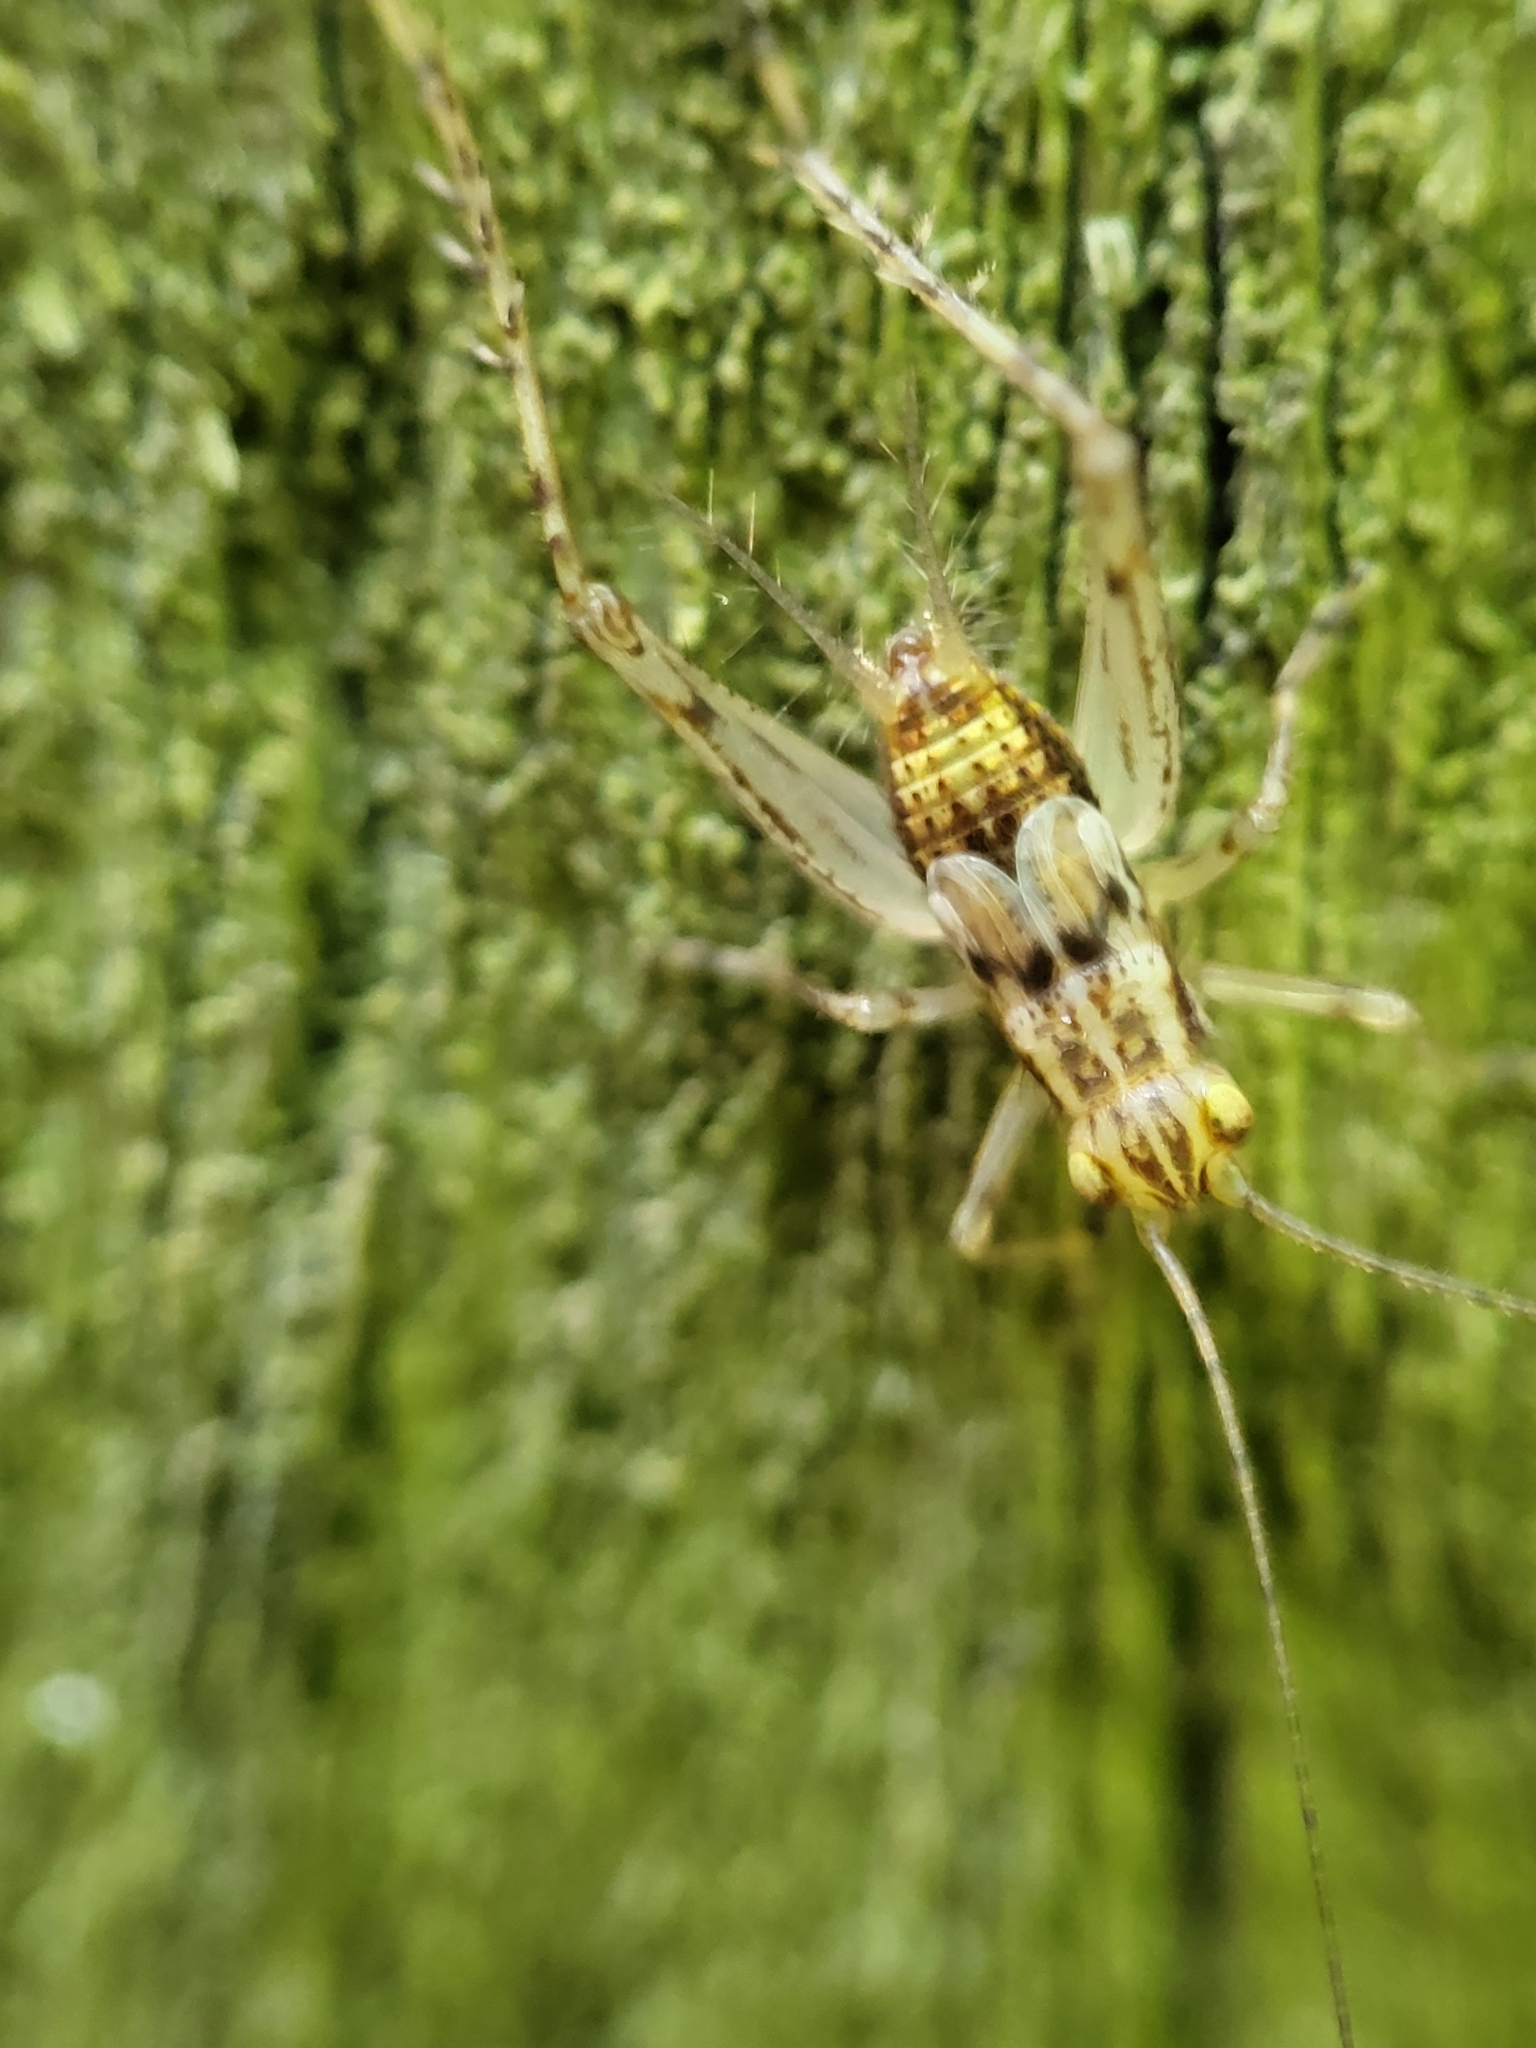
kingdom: Animalia
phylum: Arthropoda
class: Insecta
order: Orthoptera
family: Trigonidiidae
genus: Anaxipha
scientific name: Anaxipha exigua
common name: Say's bush cricket
